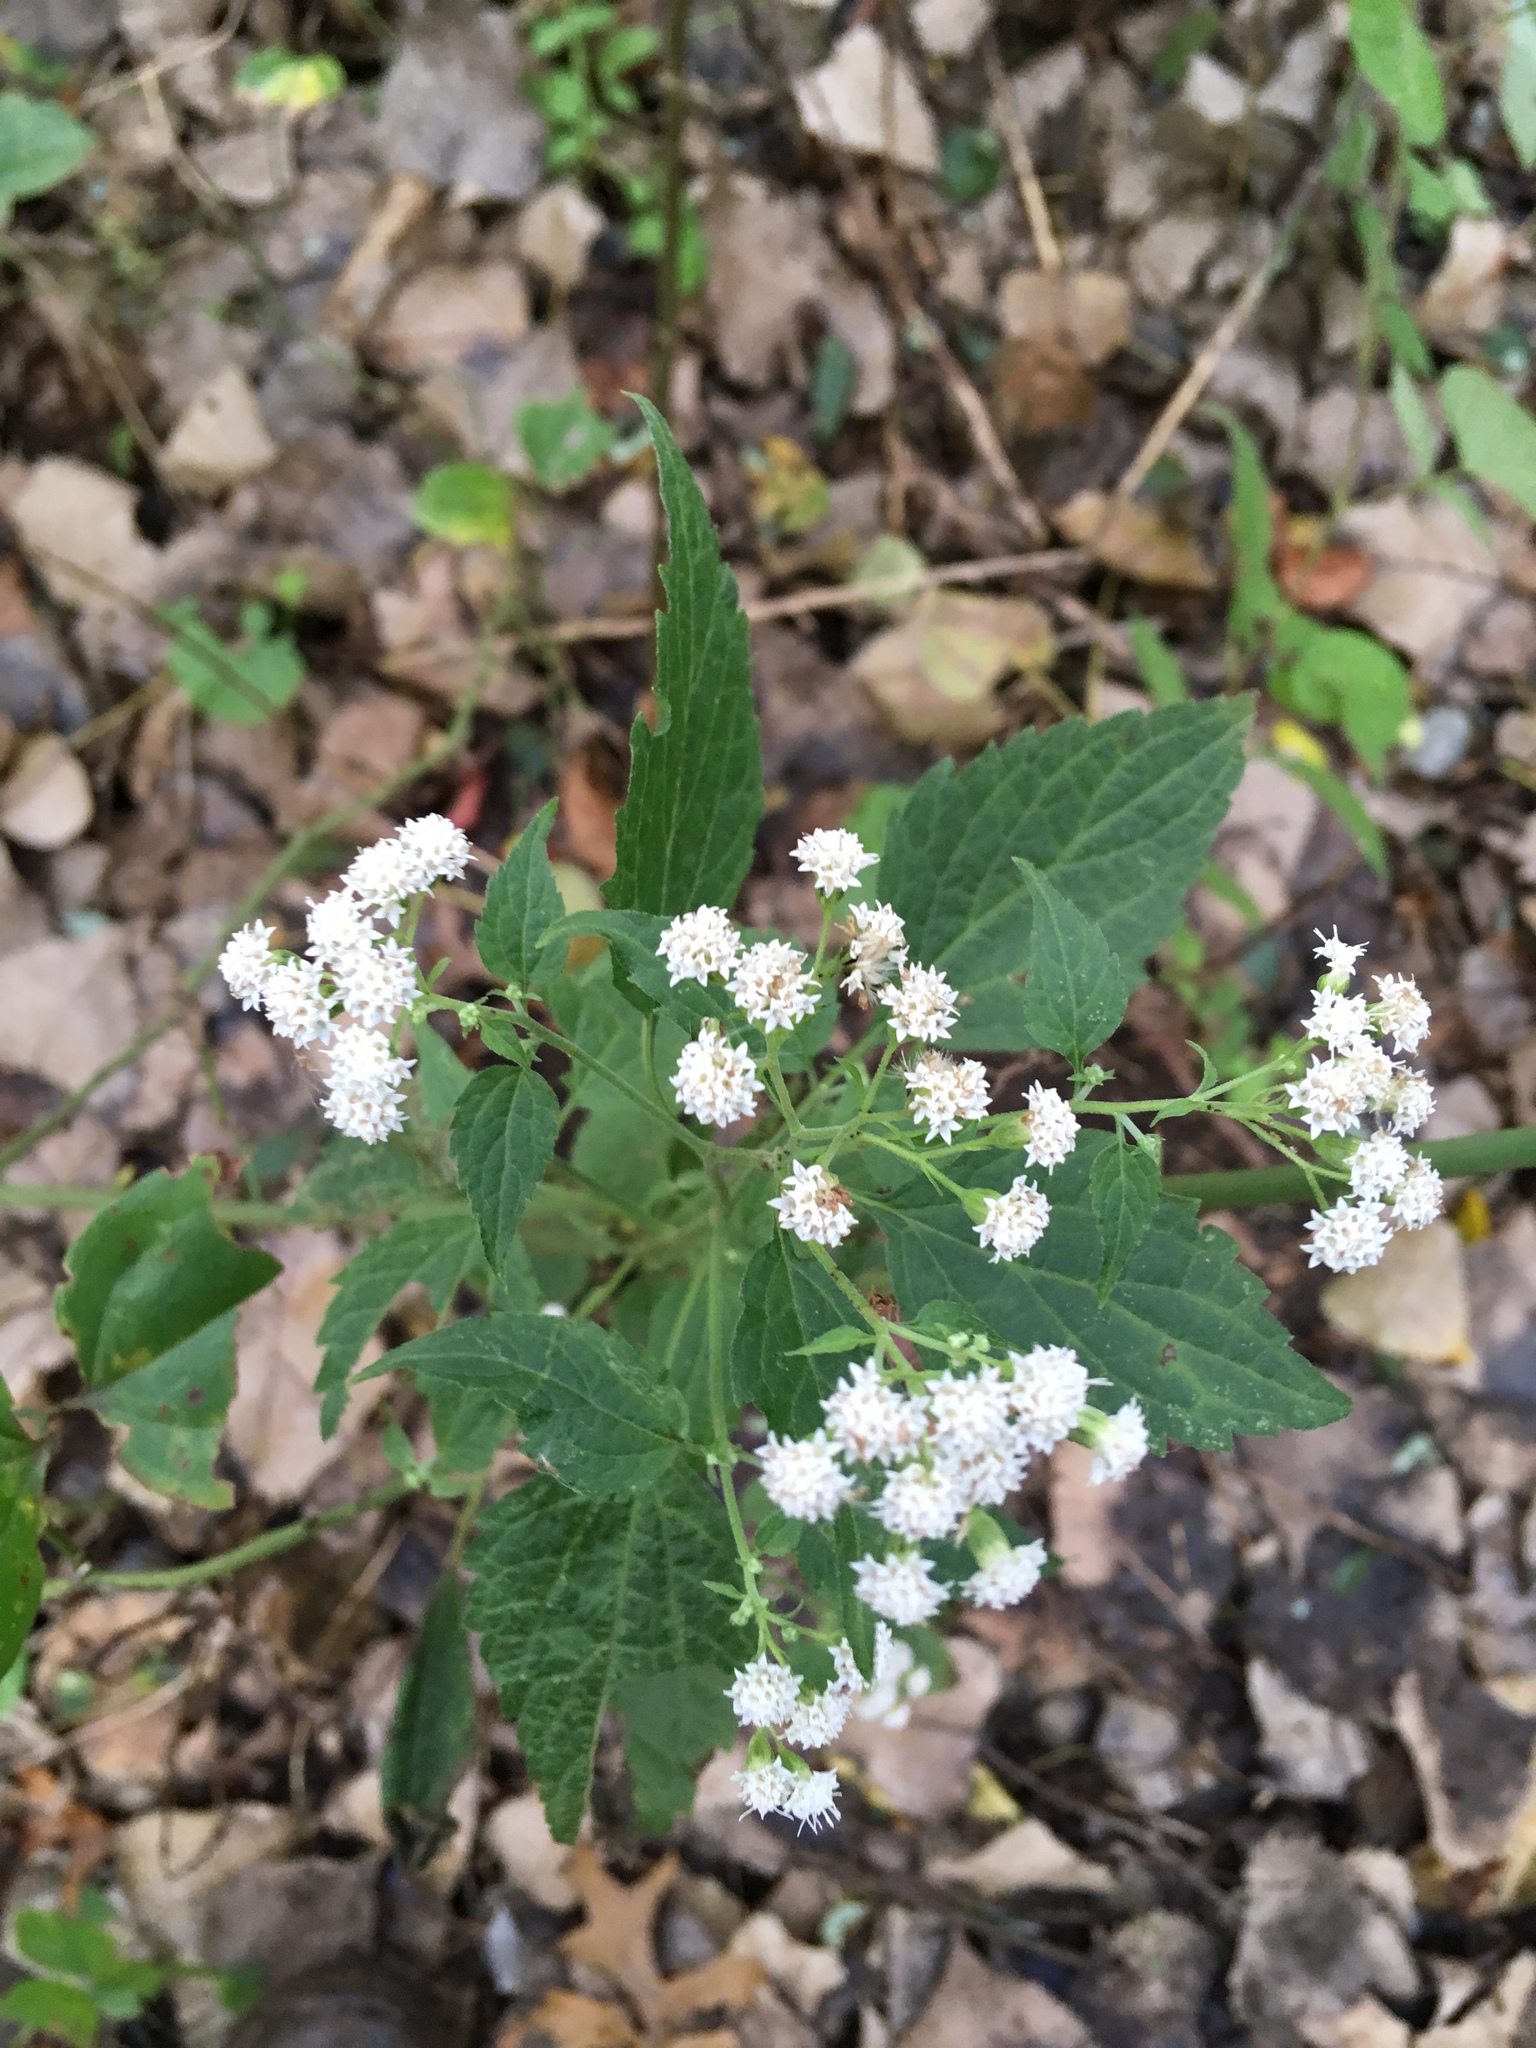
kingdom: Plantae
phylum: Tracheophyta
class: Magnoliopsida
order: Asterales
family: Asteraceae
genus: Ageratina
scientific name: Ageratina altissima
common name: White snakeroot
